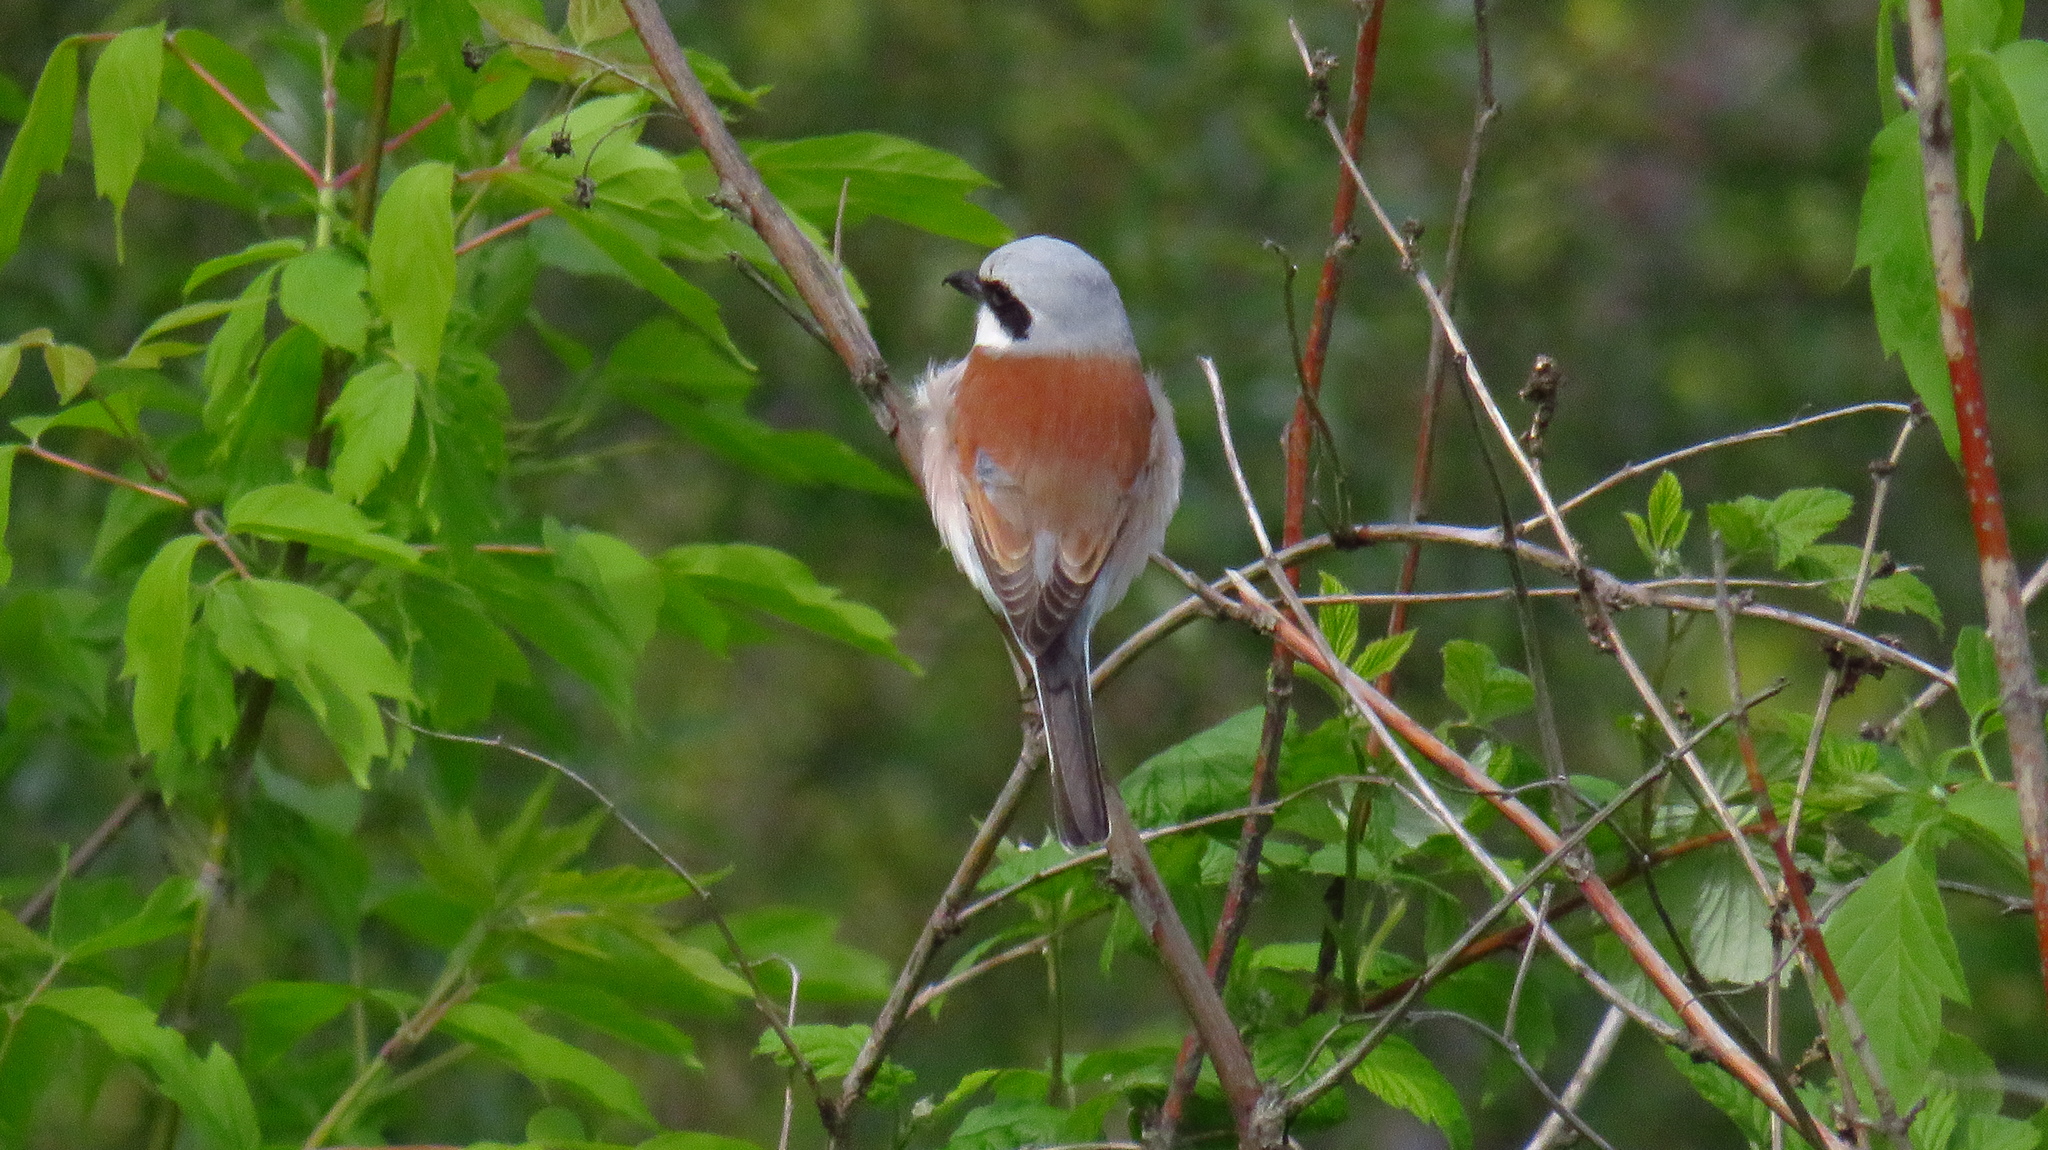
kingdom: Animalia
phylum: Chordata
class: Aves
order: Passeriformes
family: Laniidae
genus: Lanius
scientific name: Lanius collurio
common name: Red-backed shrike
